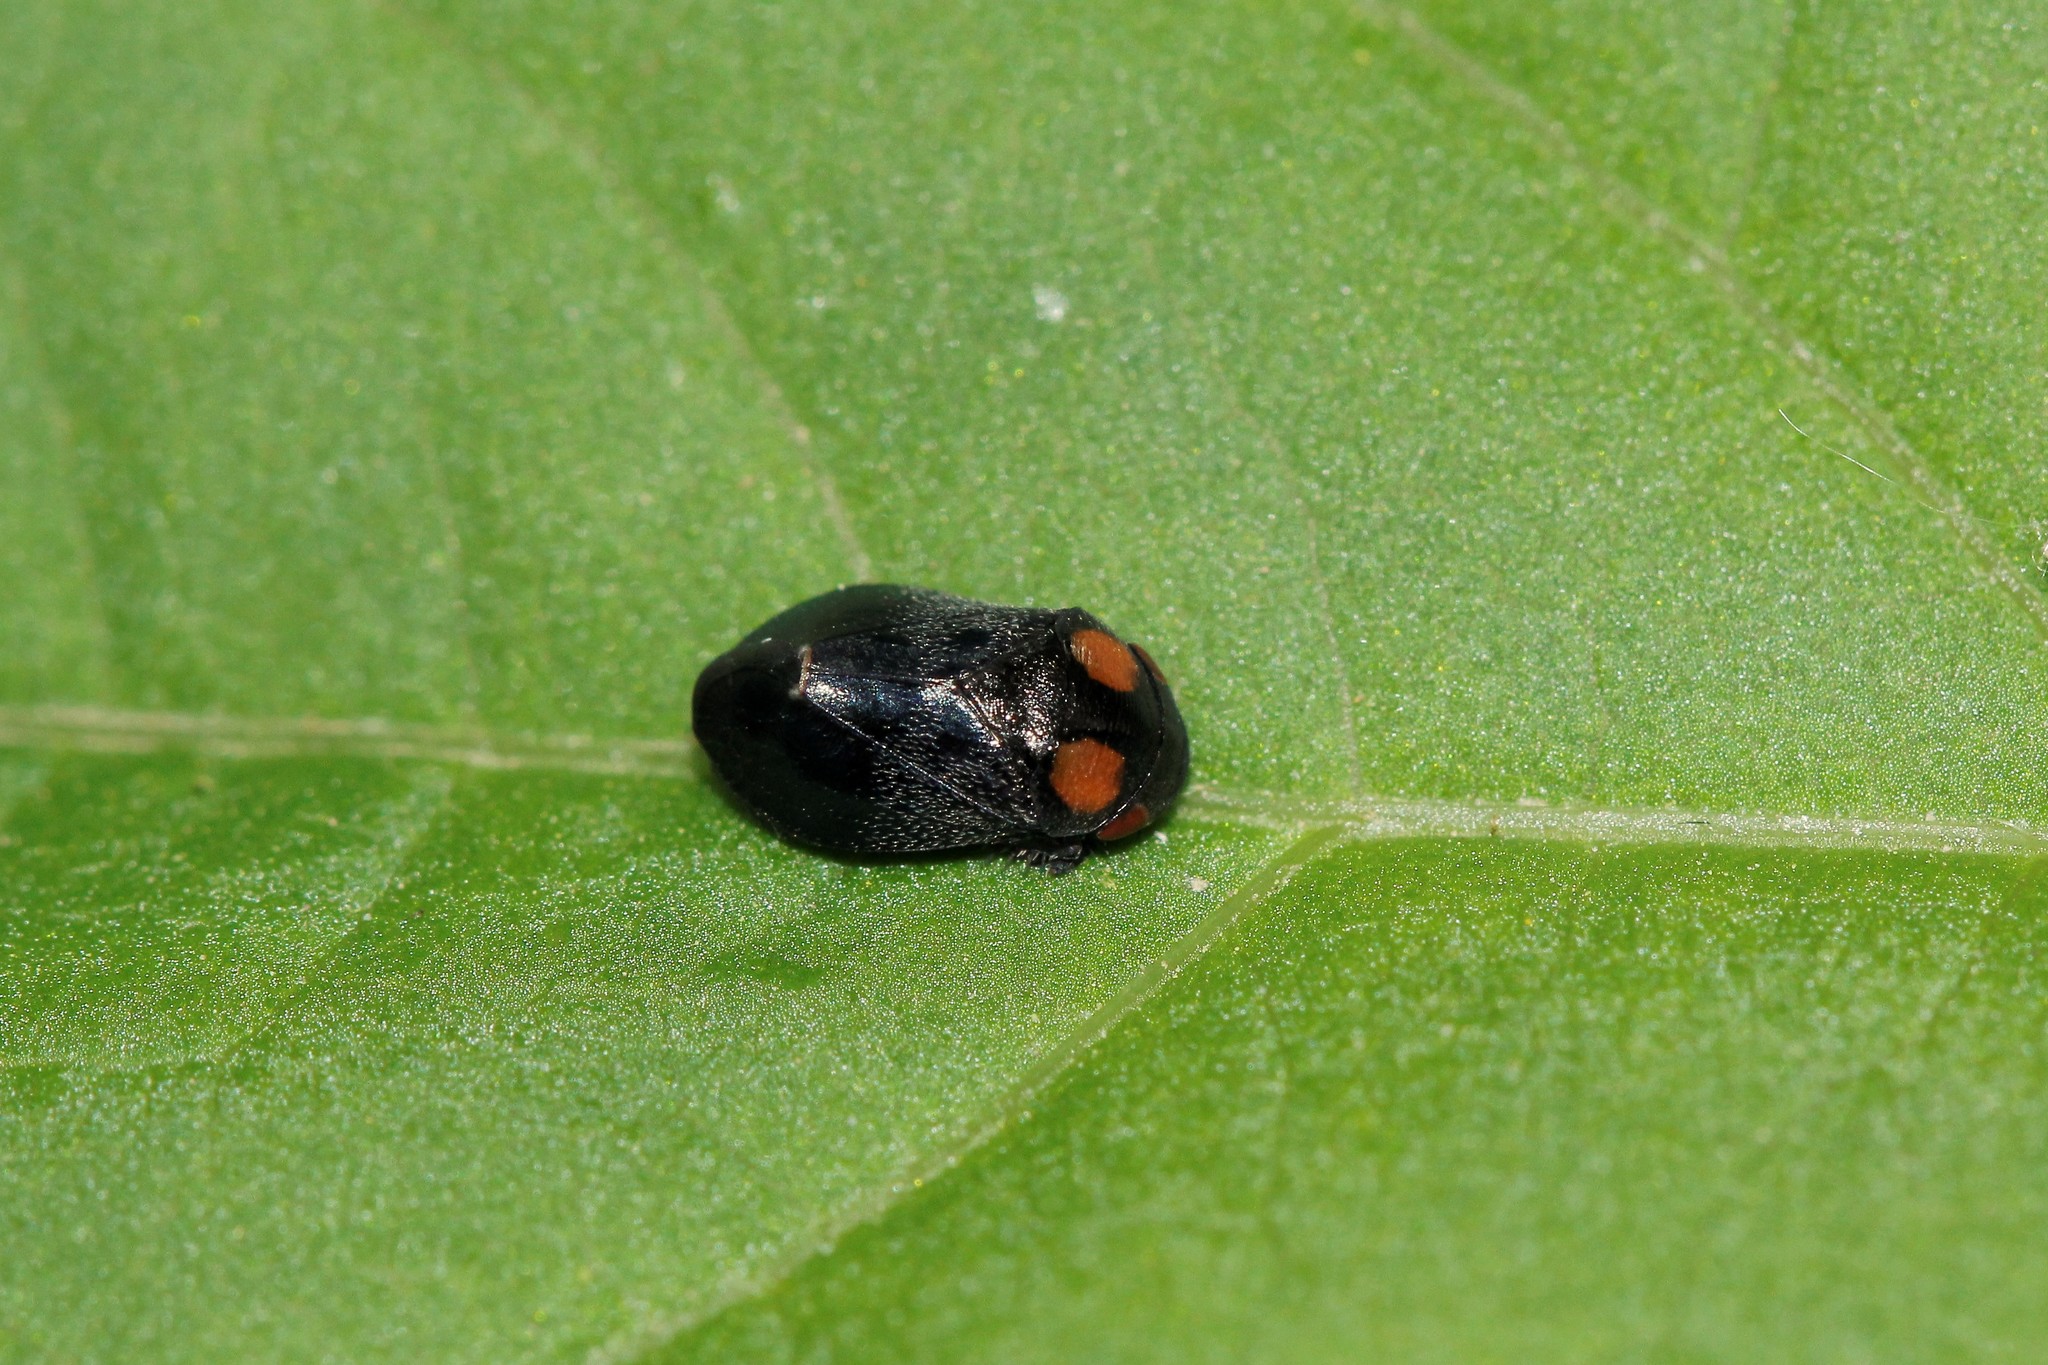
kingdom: Animalia
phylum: Arthropoda
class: Insecta
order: Hemiptera
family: Cicadellidae
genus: Penthimia
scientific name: Penthimia nigra
